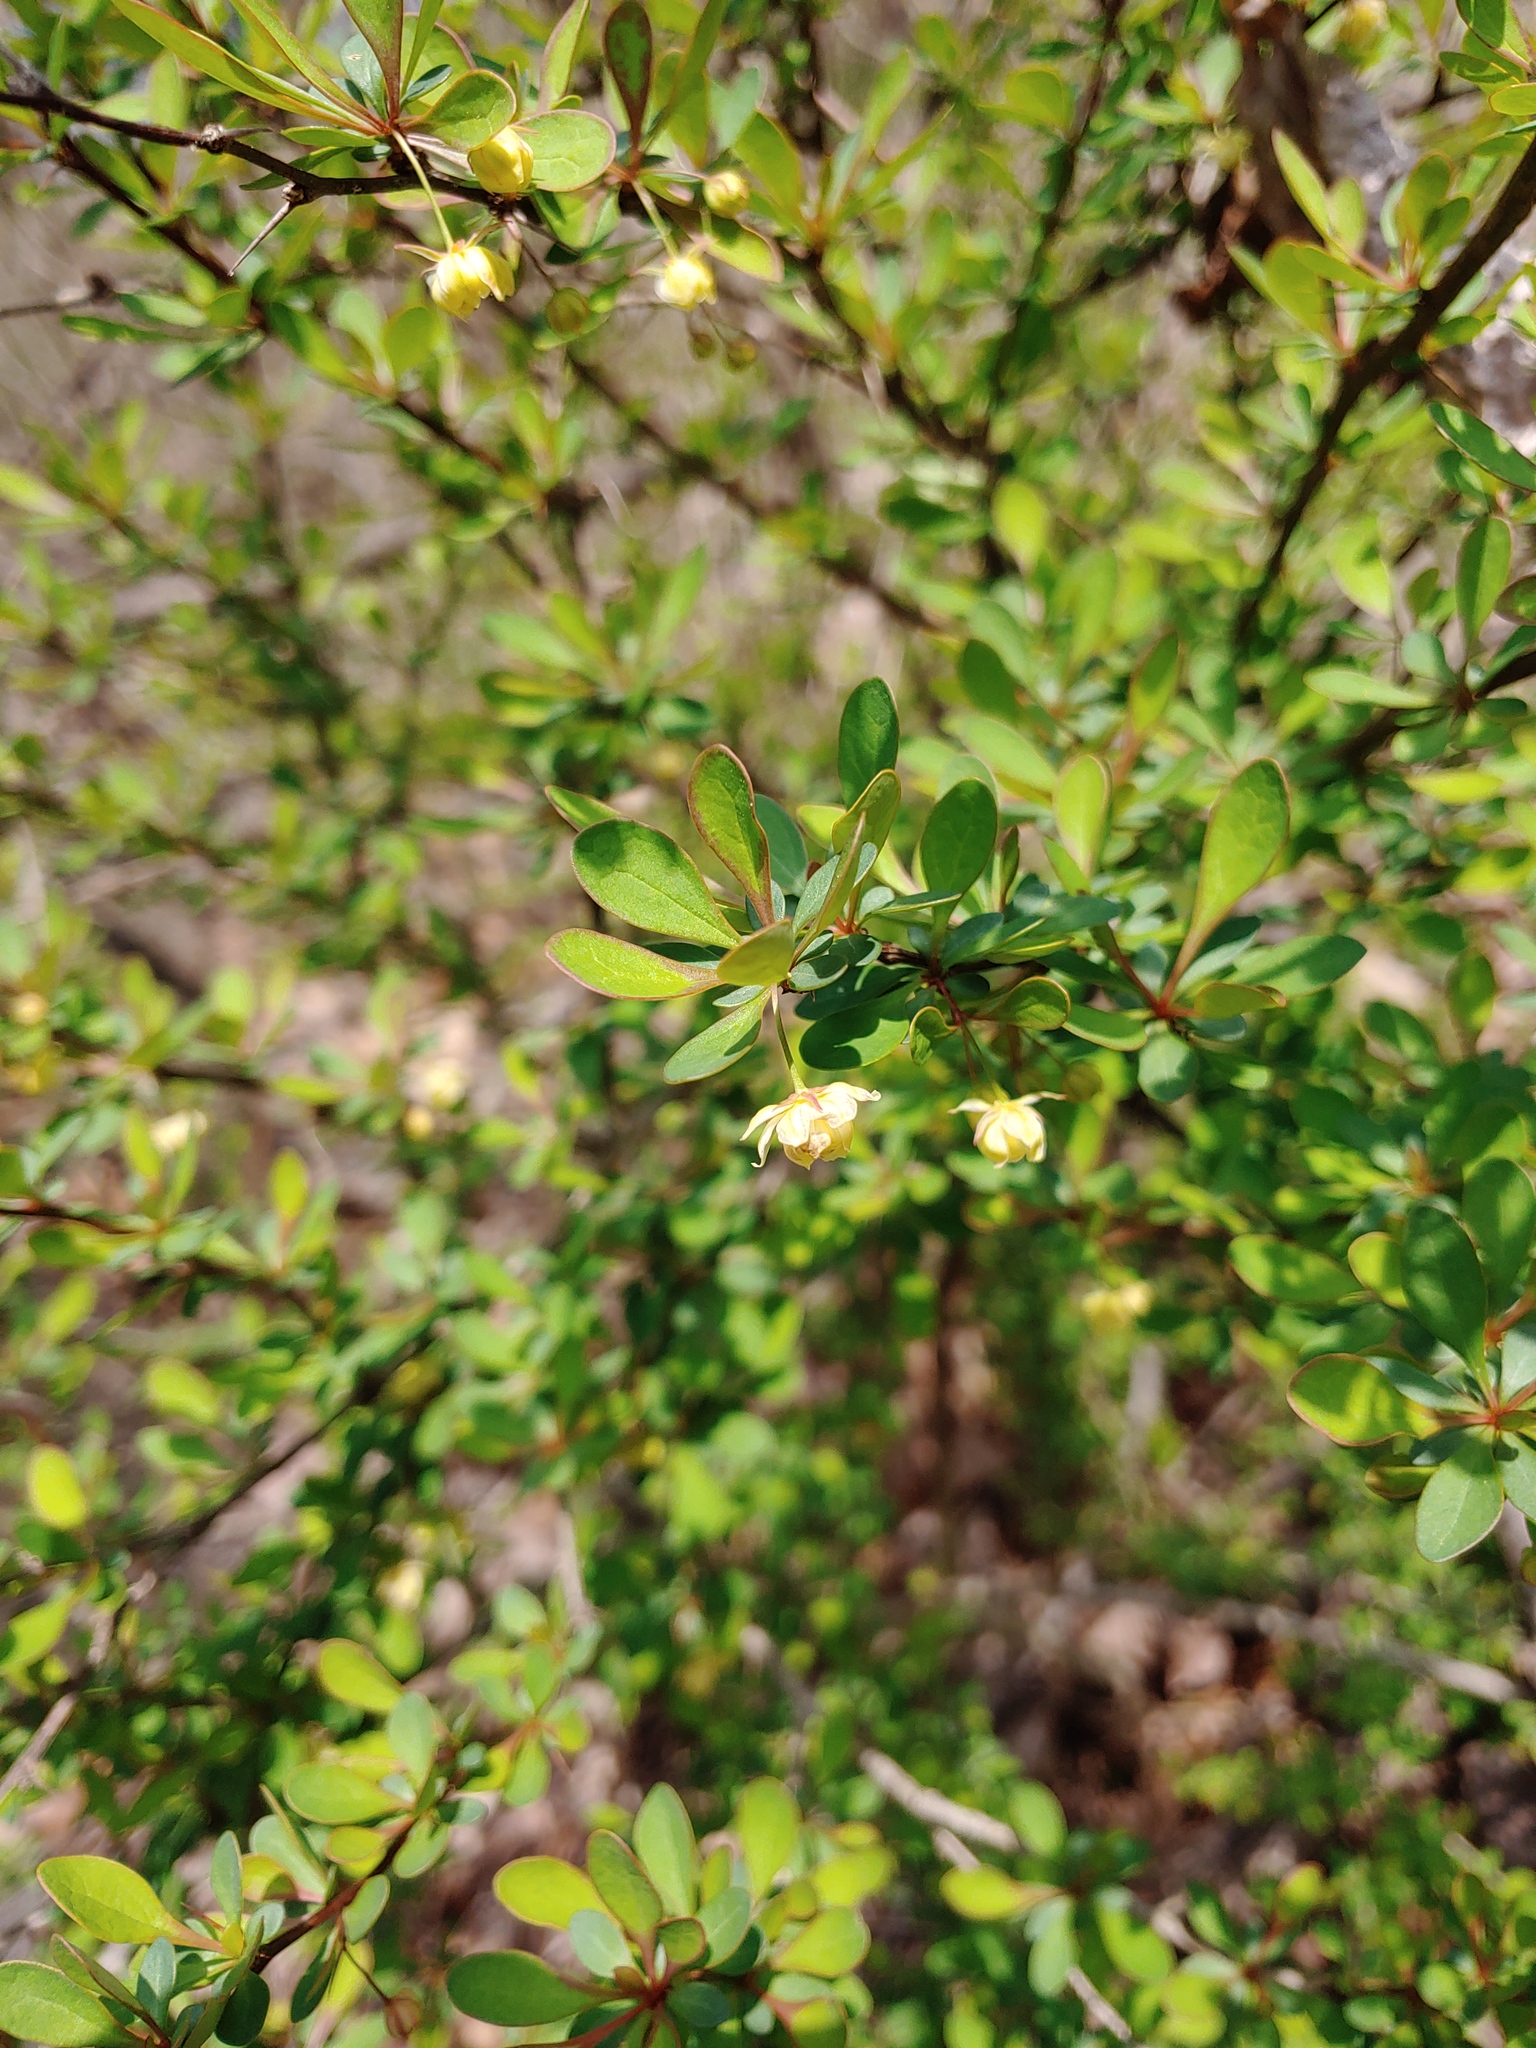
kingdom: Plantae
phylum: Tracheophyta
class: Magnoliopsida
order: Ranunculales
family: Berberidaceae
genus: Berberis
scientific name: Berberis thunbergii
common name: Japanese barberry
